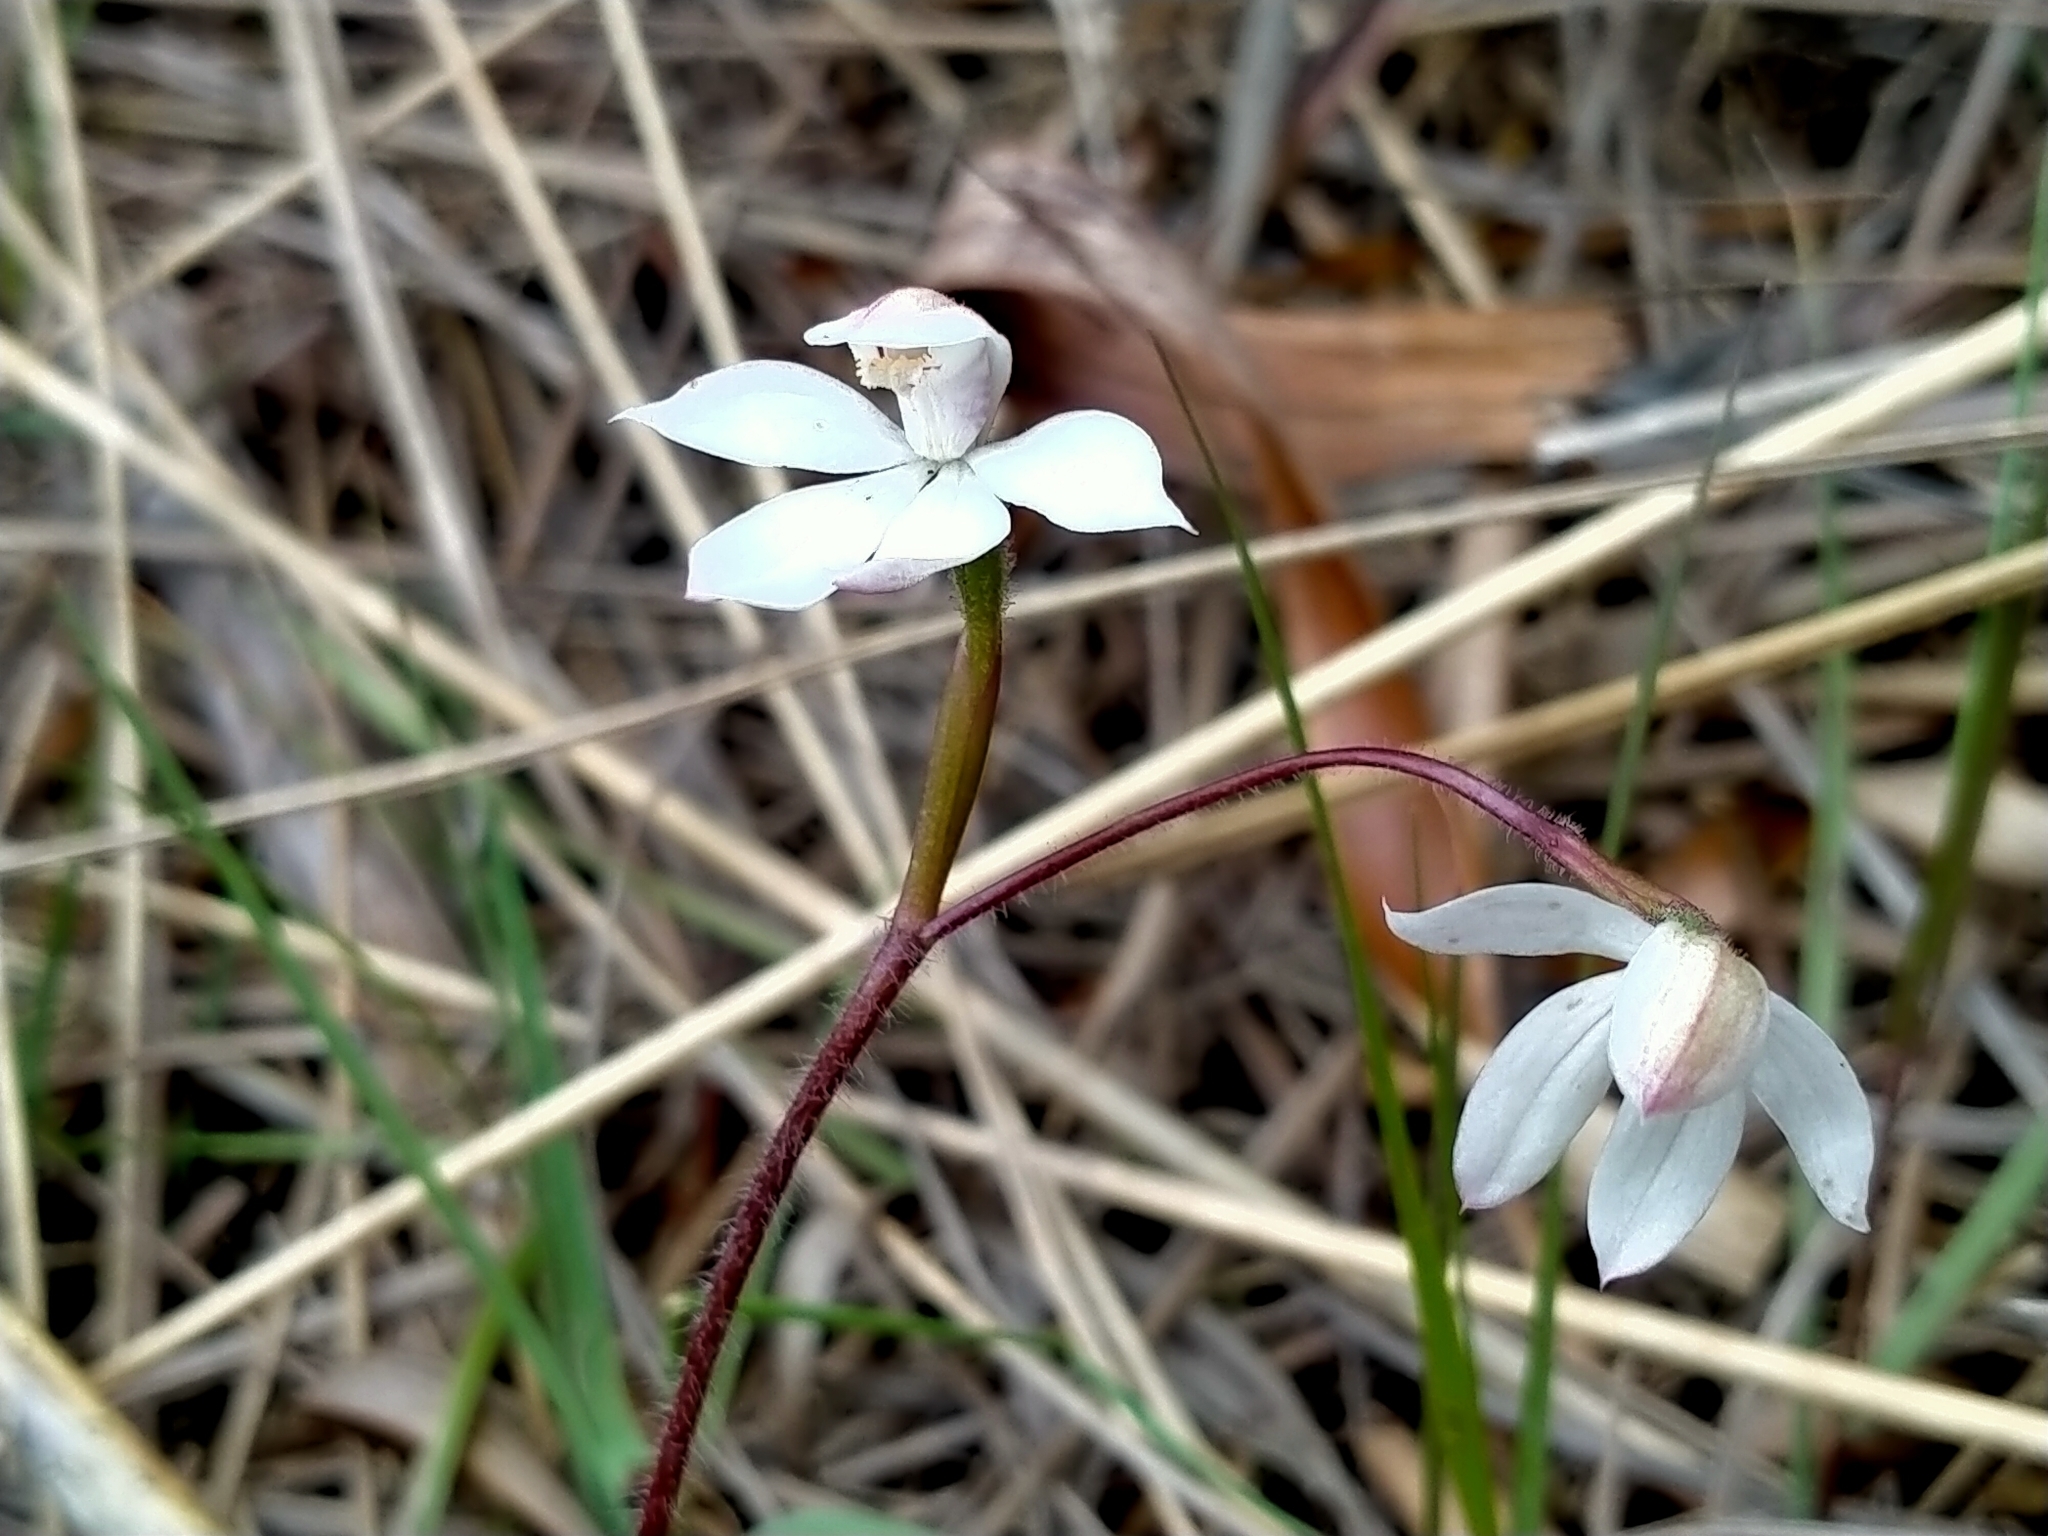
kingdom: Plantae
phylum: Tracheophyta
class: Liliopsida
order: Asparagales
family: Orchidaceae
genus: Caladenia
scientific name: Caladenia lyallii
